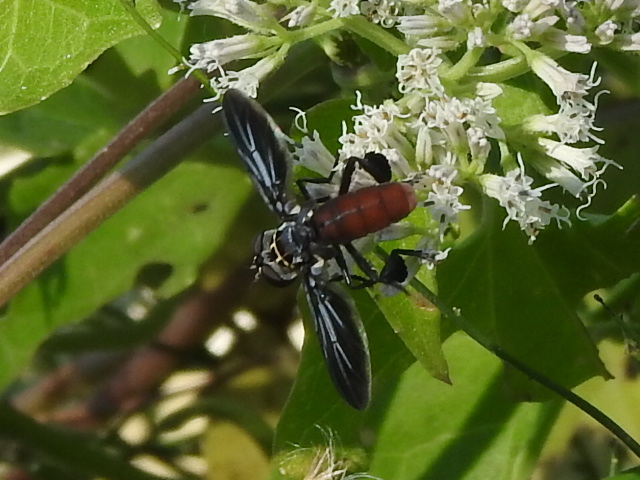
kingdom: Animalia
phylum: Arthropoda
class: Insecta
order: Diptera
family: Tachinidae
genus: Trichopoda
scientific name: Trichopoda lanipes
